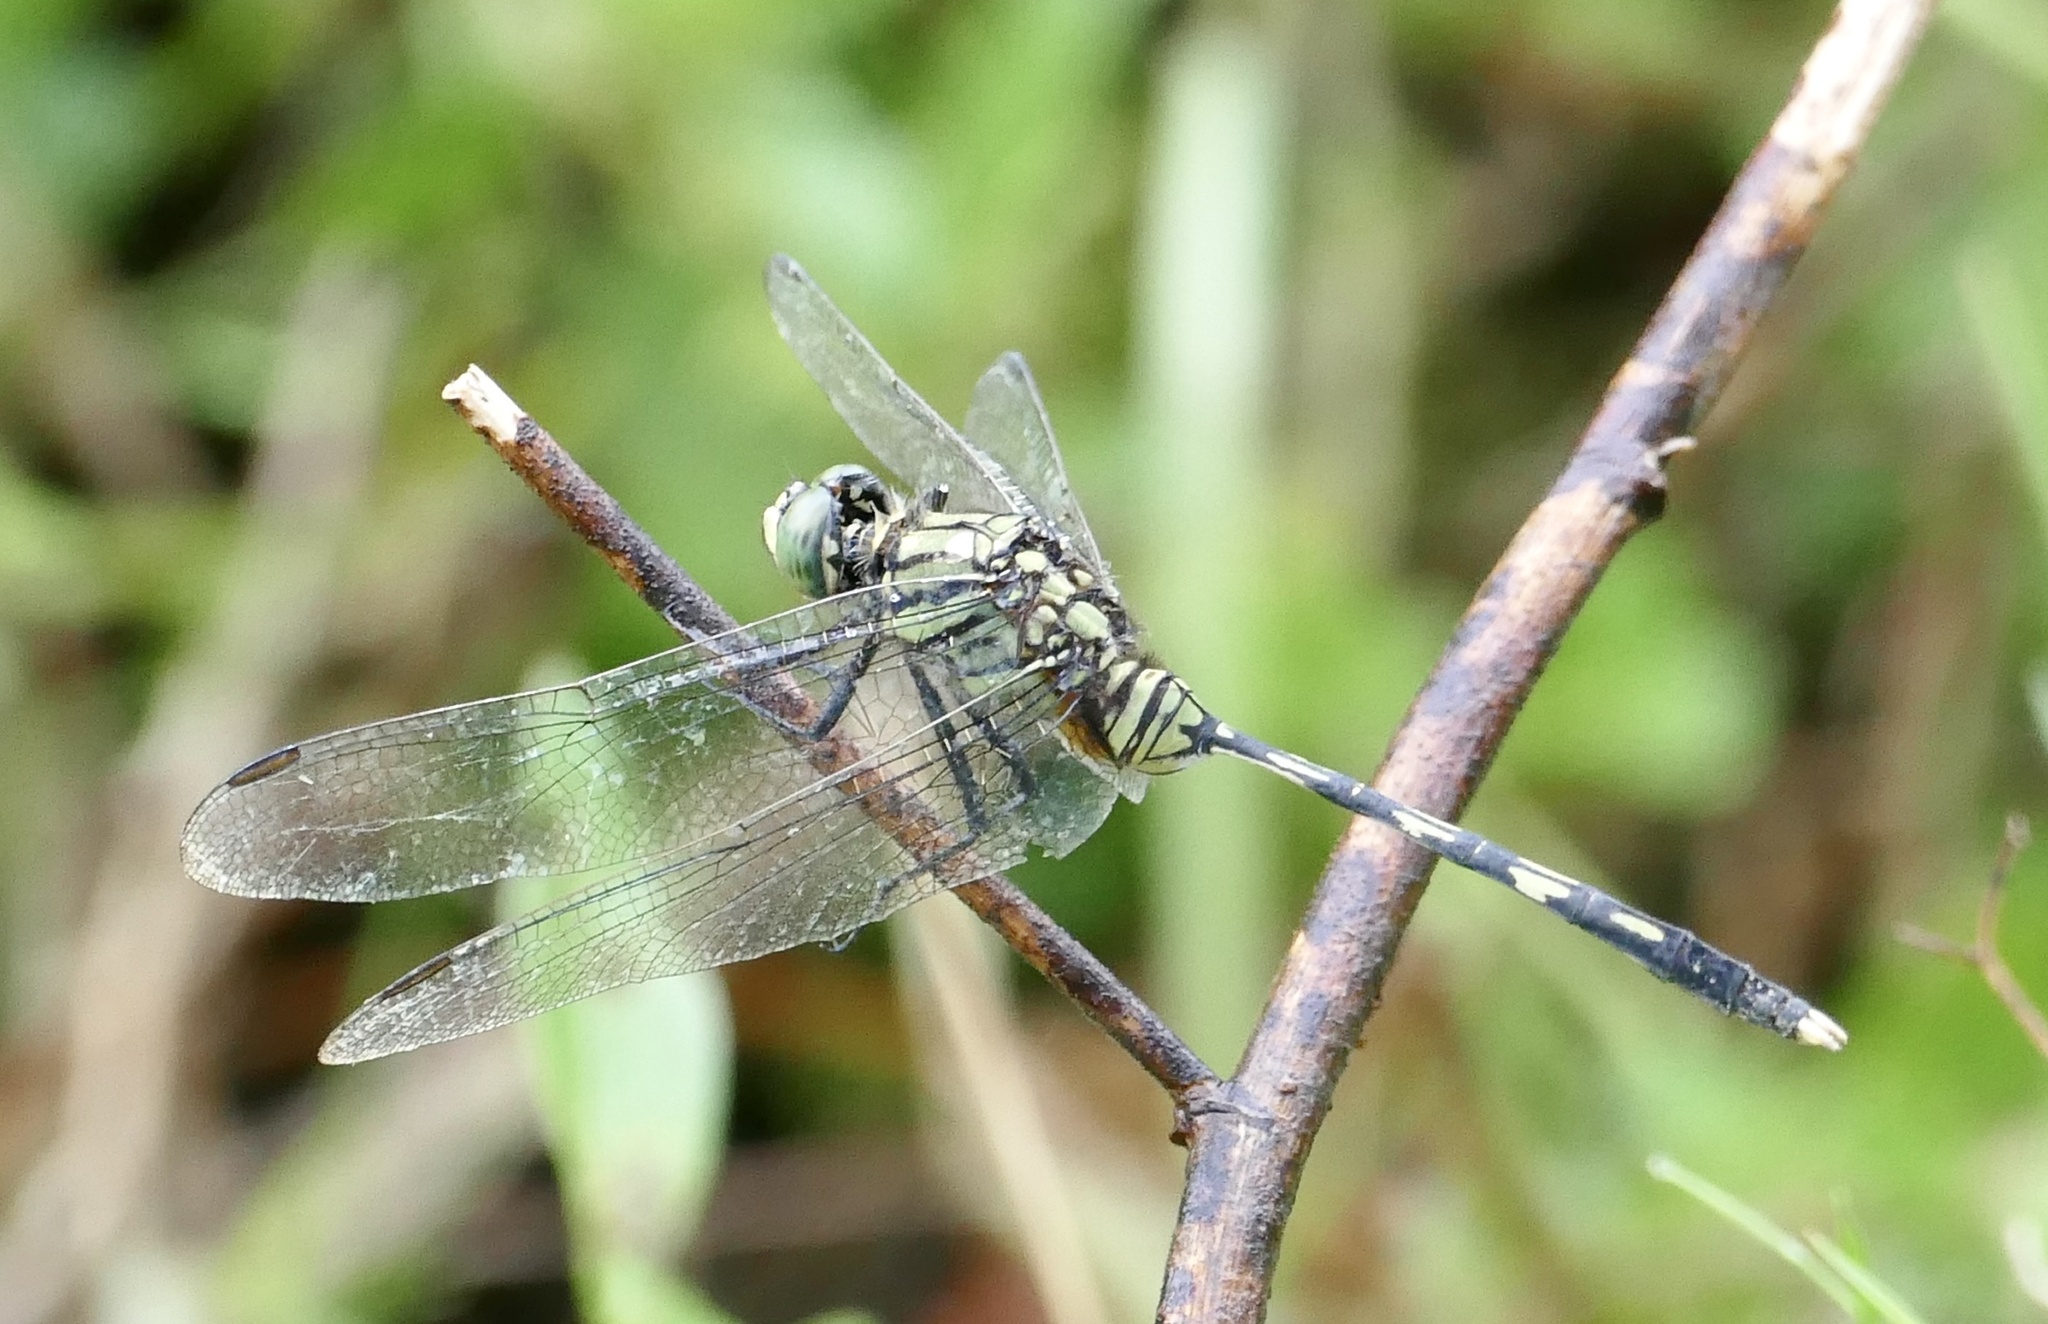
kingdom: Animalia
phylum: Arthropoda
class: Insecta
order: Odonata
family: Libellulidae
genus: Orthetrum
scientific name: Orthetrum serapia
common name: Green skimmer
